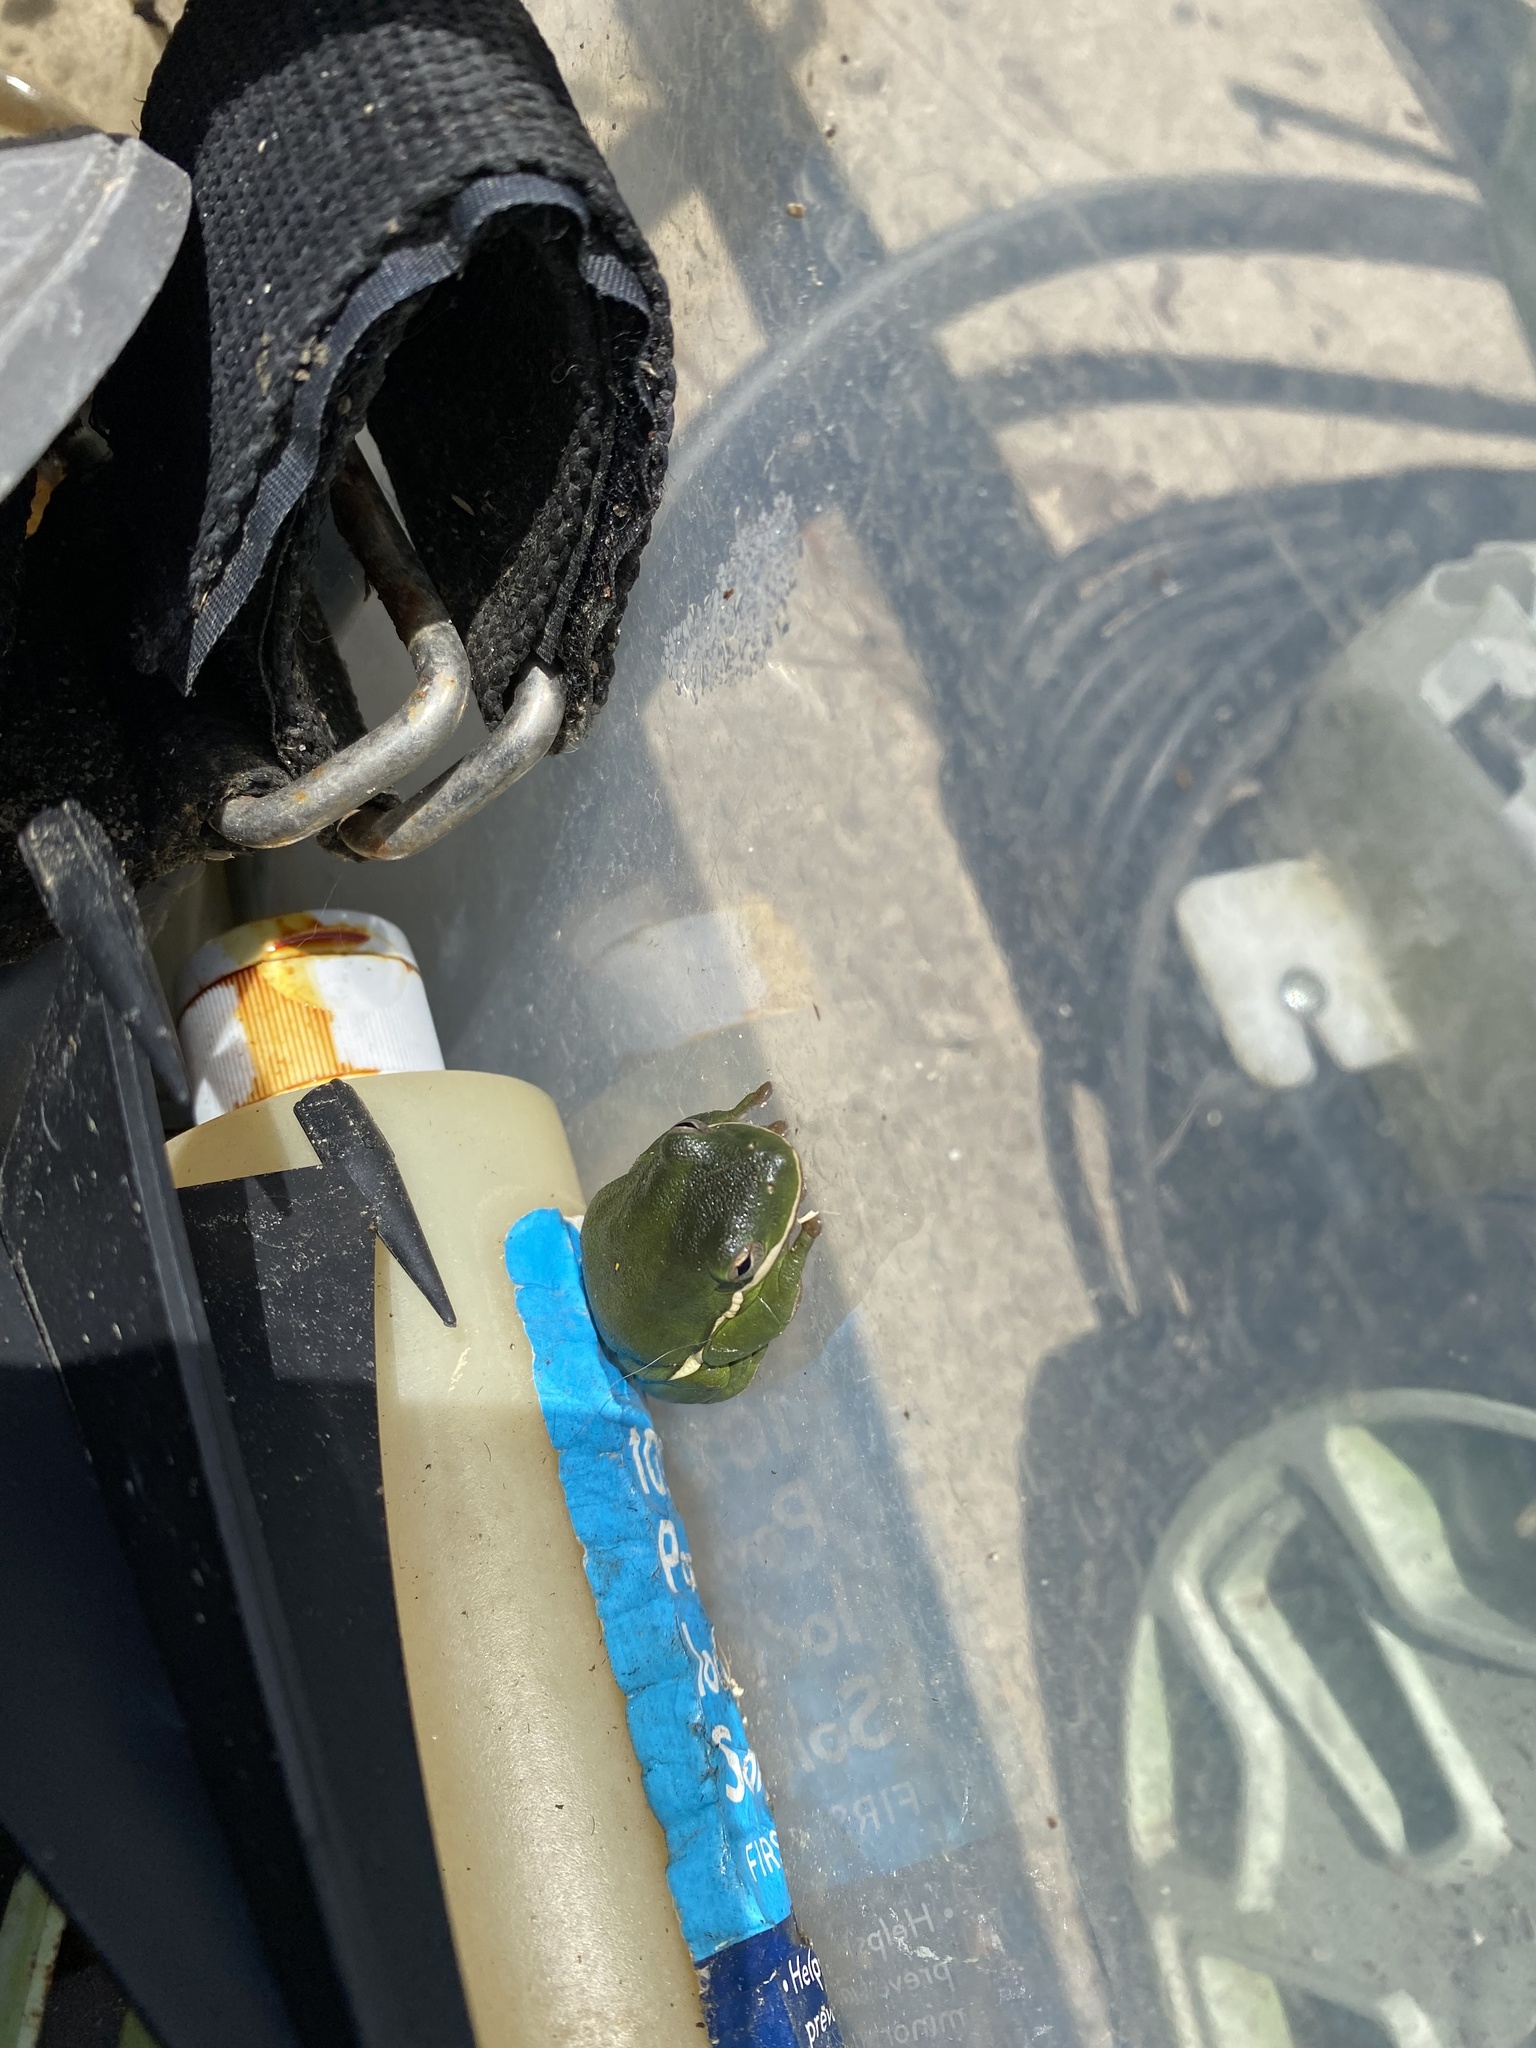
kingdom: Animalia
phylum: Chordata
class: Amphibia
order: Anura
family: Hylidae
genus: Dryophytes
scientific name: Dryophytes cinereus
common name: Green treefrog
